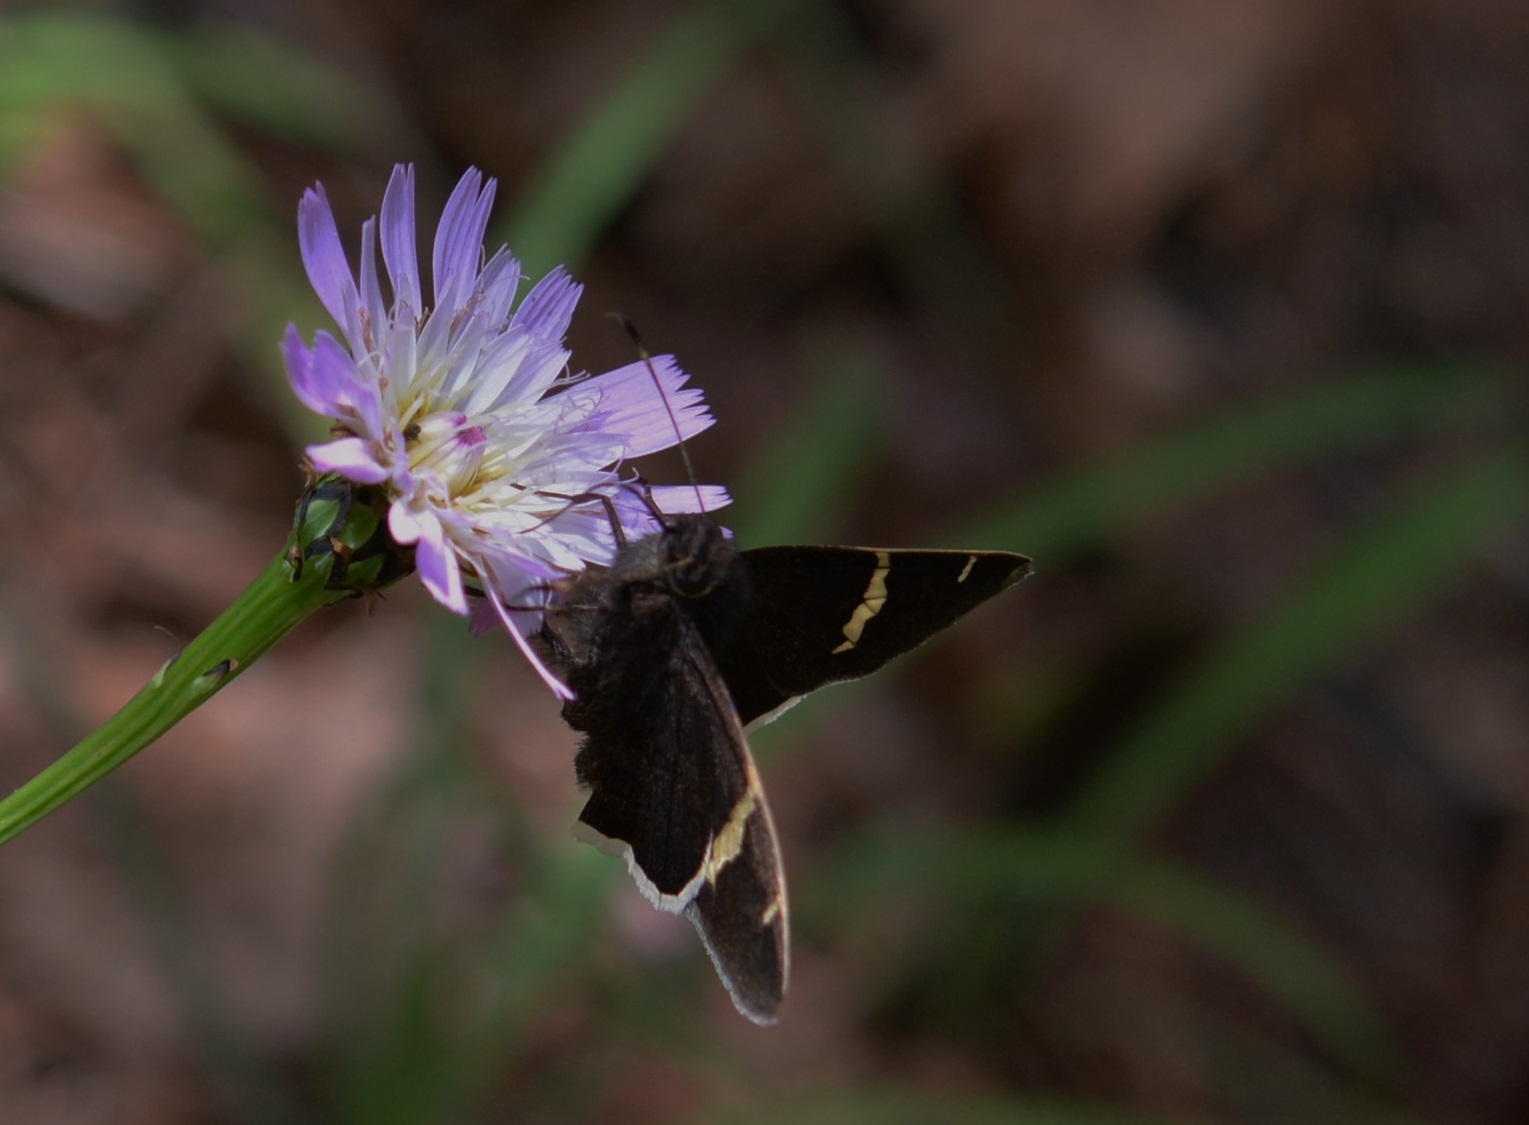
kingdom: Animalia
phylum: Arthropoda
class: Insecta
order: Lepidoptera
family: Hesperiidae
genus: Thorybes
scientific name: Thorybes cincta
